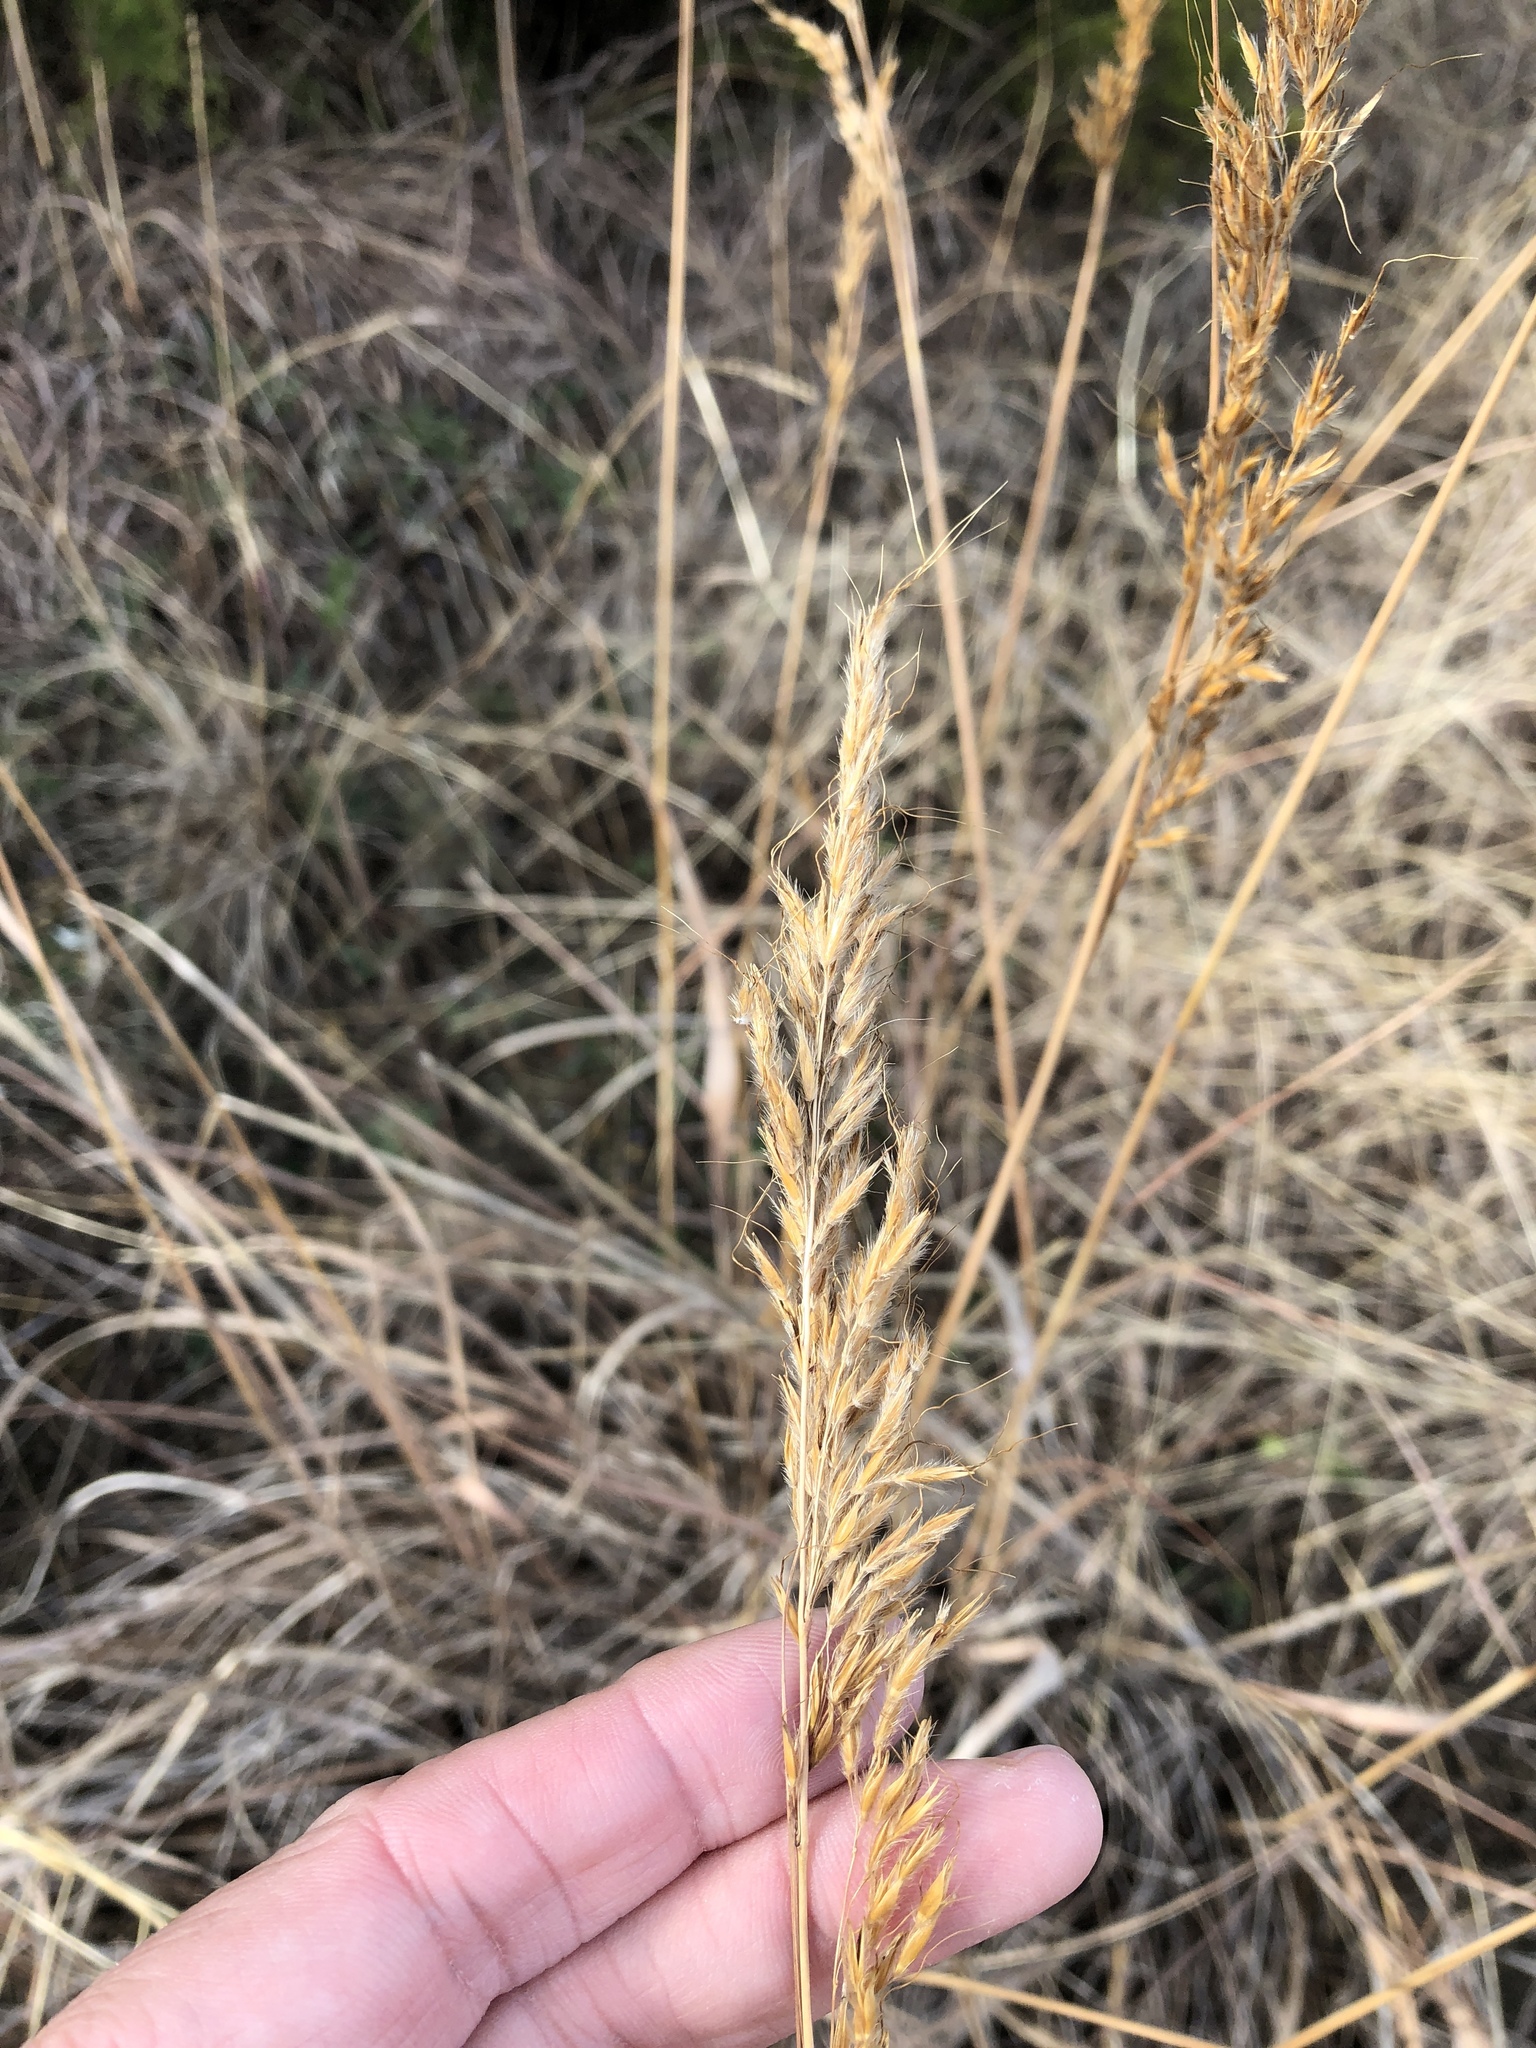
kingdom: Plantae
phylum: Tracheophyta
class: Liliopsida
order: Poales
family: Poaceae
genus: Sorghastrum
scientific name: Sorghastrum nutans
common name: Indian grass
